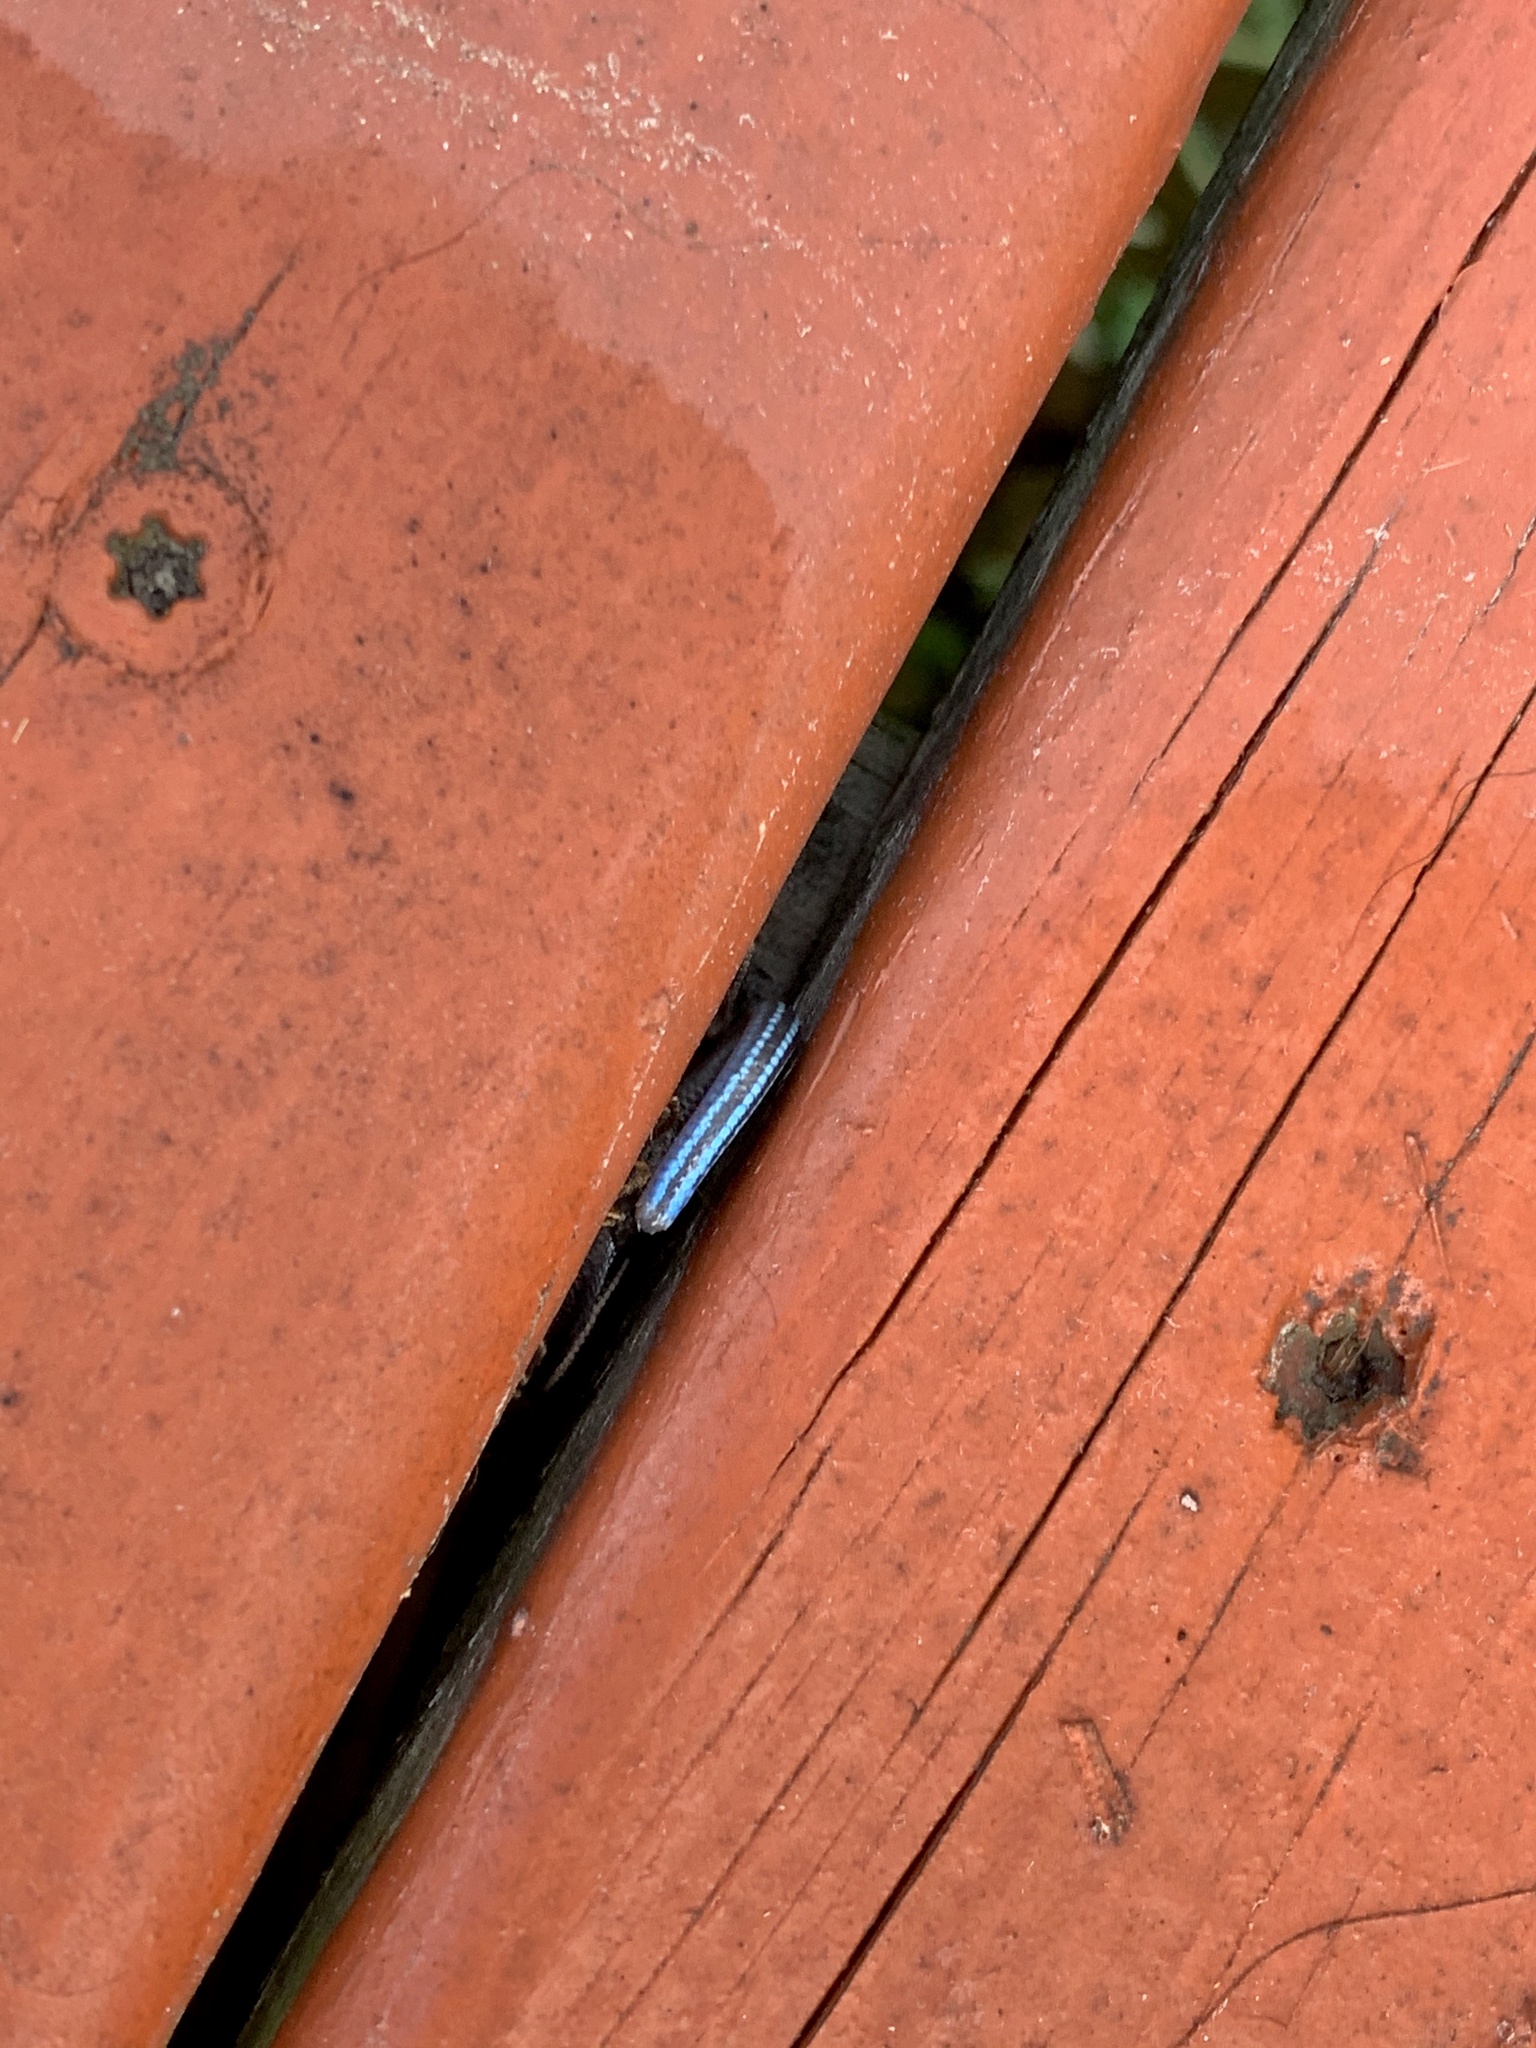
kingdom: Animalia
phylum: Chordata
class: Squamata
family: Scincidae
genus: Plestiodon
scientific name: Plestiodon fasciatus
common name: Five-lined skink
